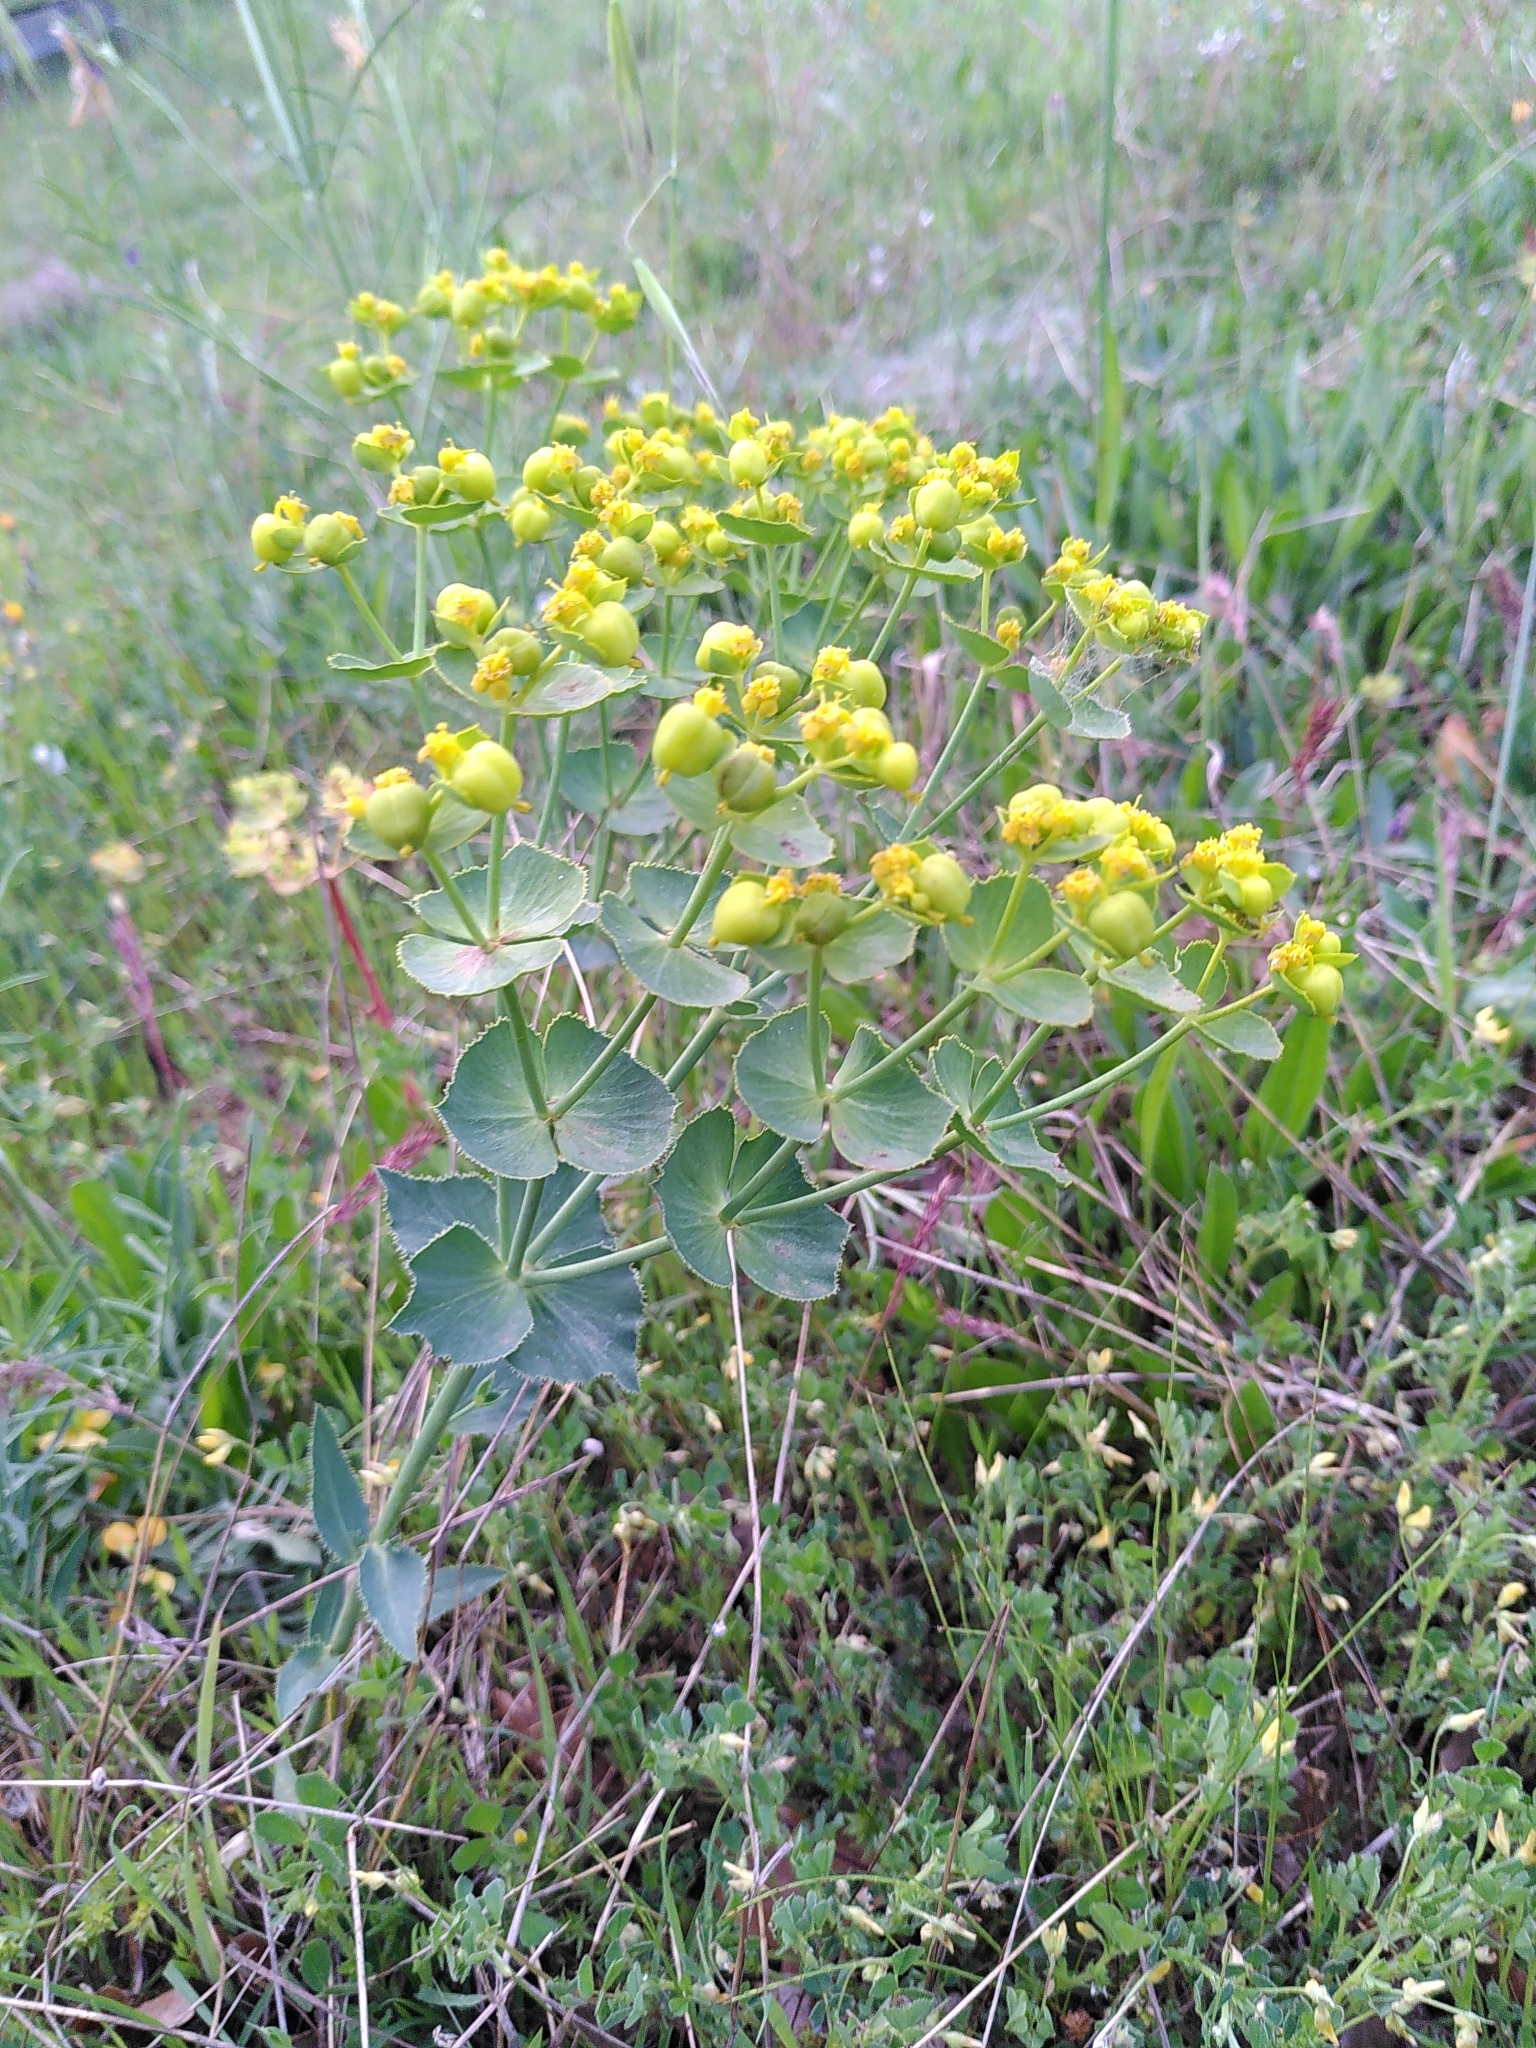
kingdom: Plantae
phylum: Tracheophyta
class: Magnoliopsida
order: Malpighiales
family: Euphorbiaceae
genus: Euphorbia
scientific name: Euphorbia serrata
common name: Serrate spurge
